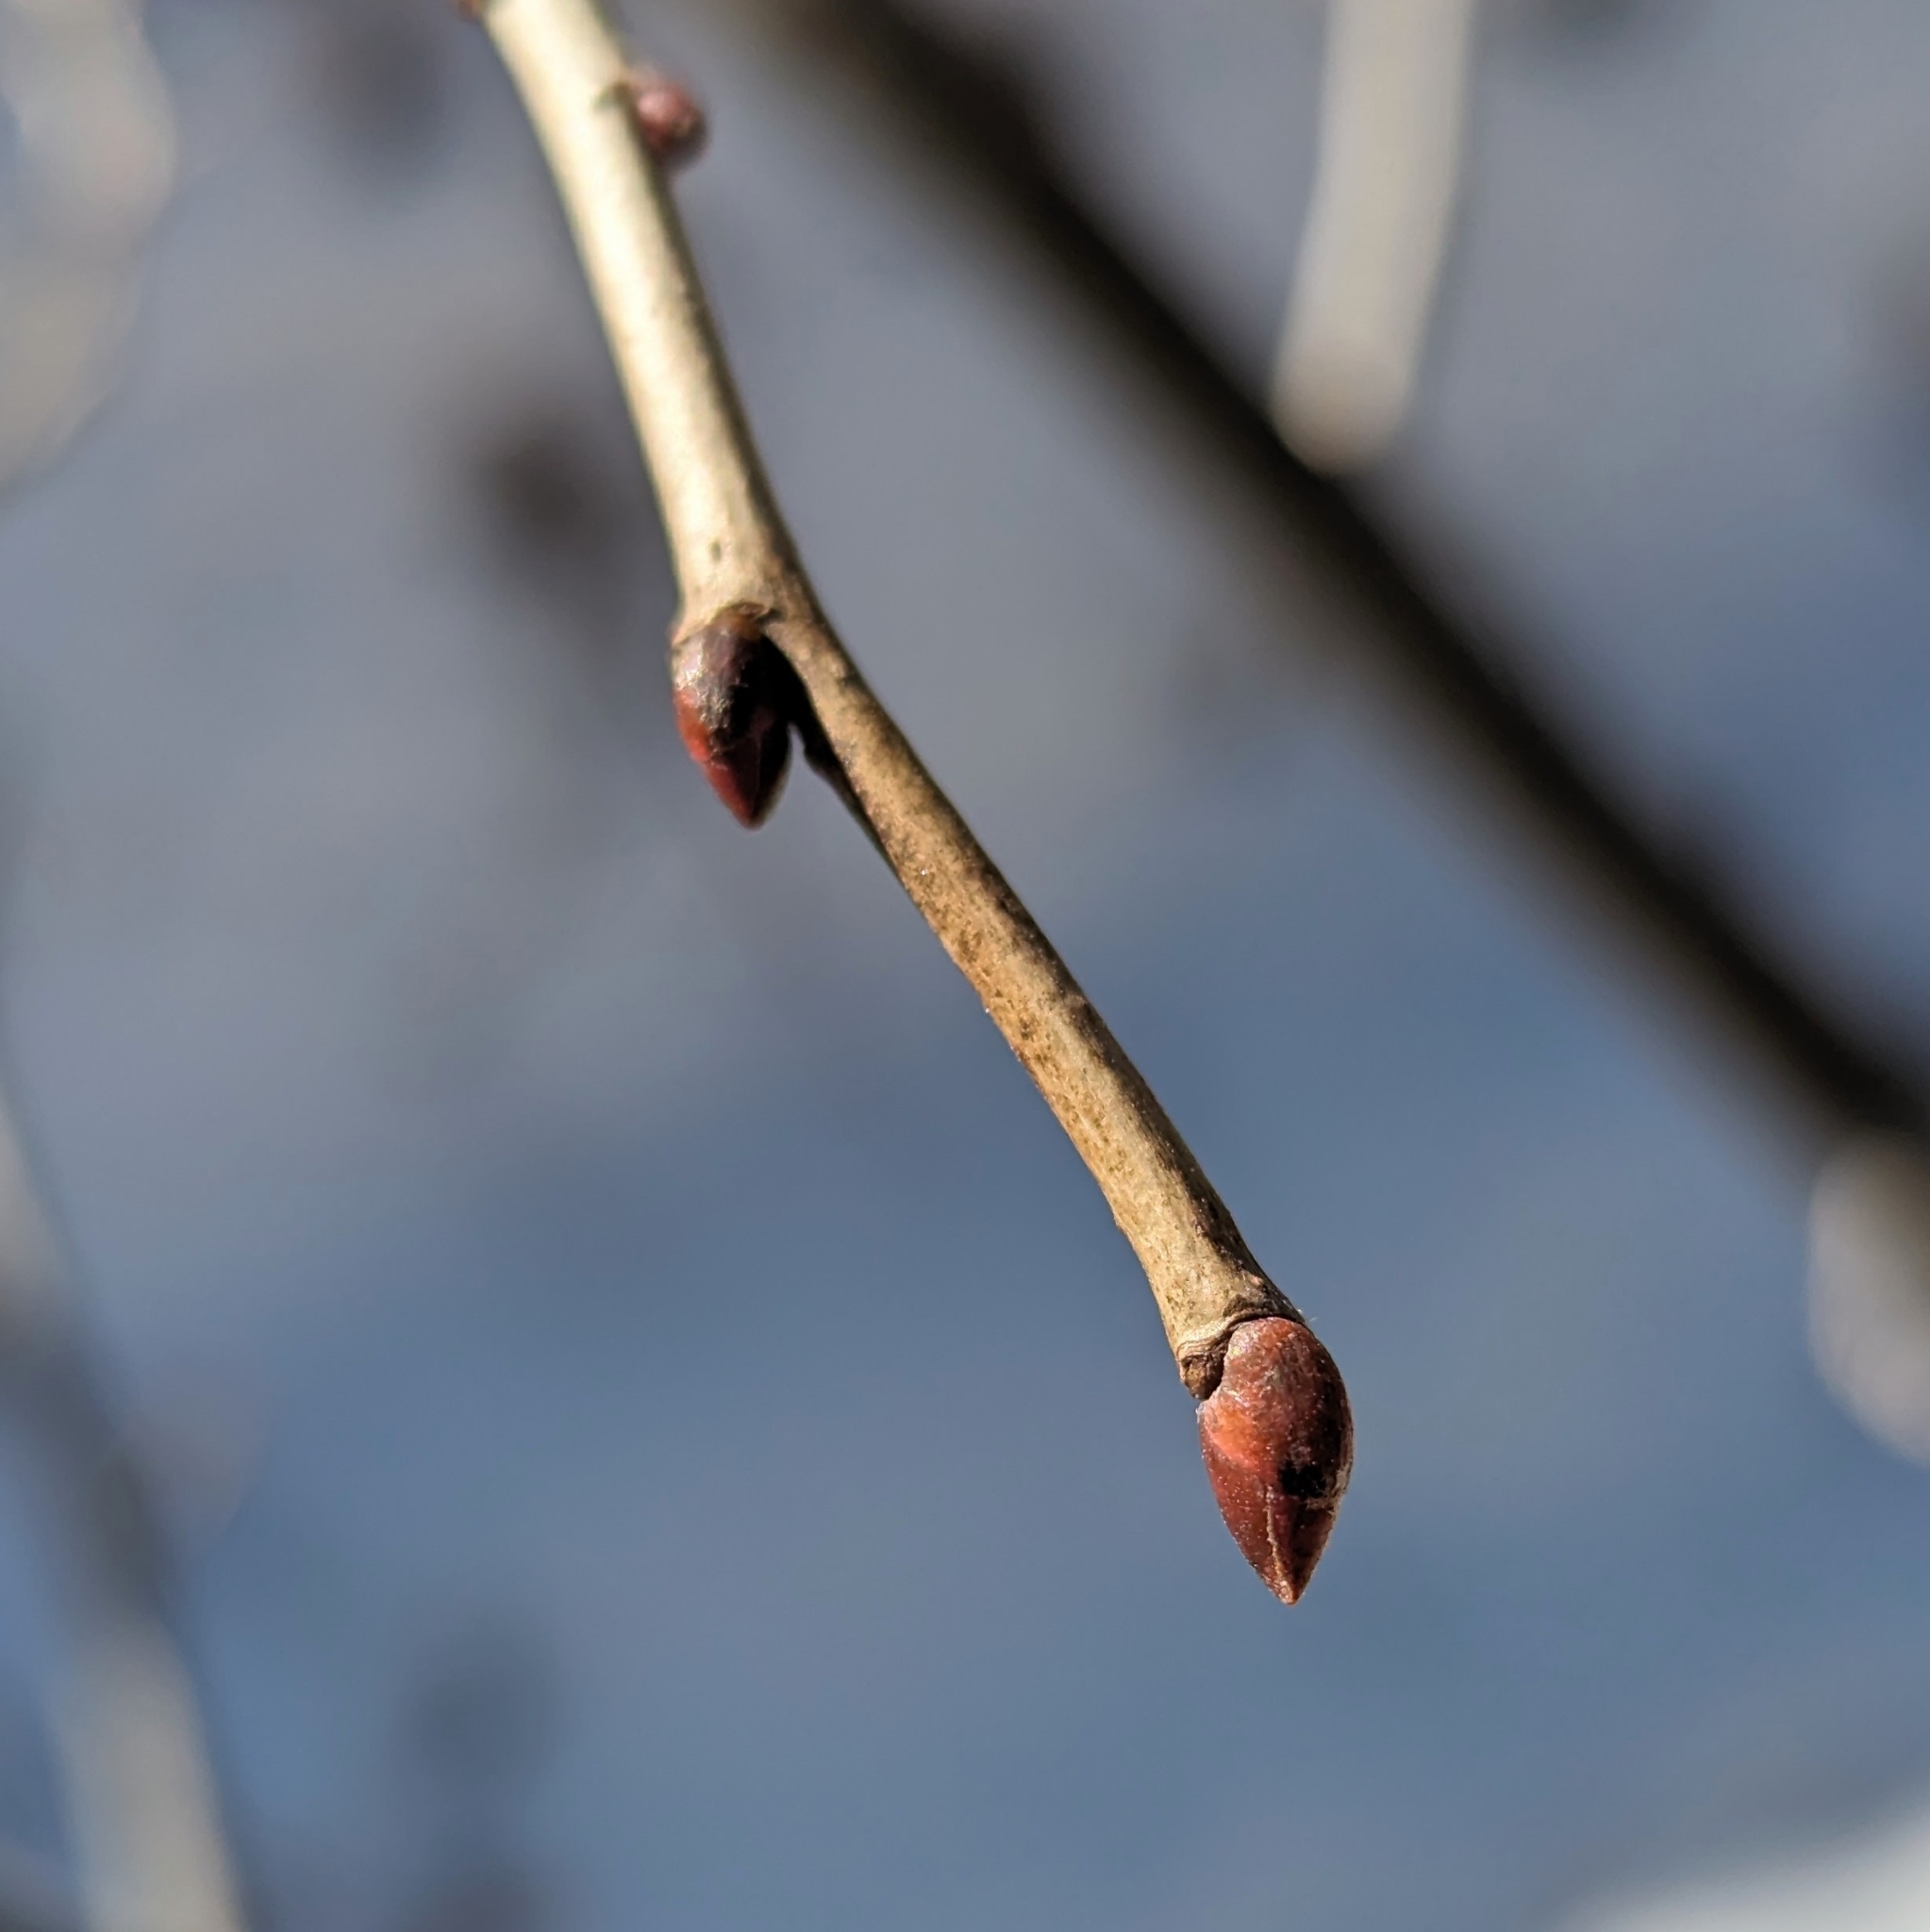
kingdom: Plantae
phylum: Tracheophyta
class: Magnoliopsida
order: Malvales
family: Malvaceae
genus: Tilia
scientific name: Tilia americana
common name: Basswood
